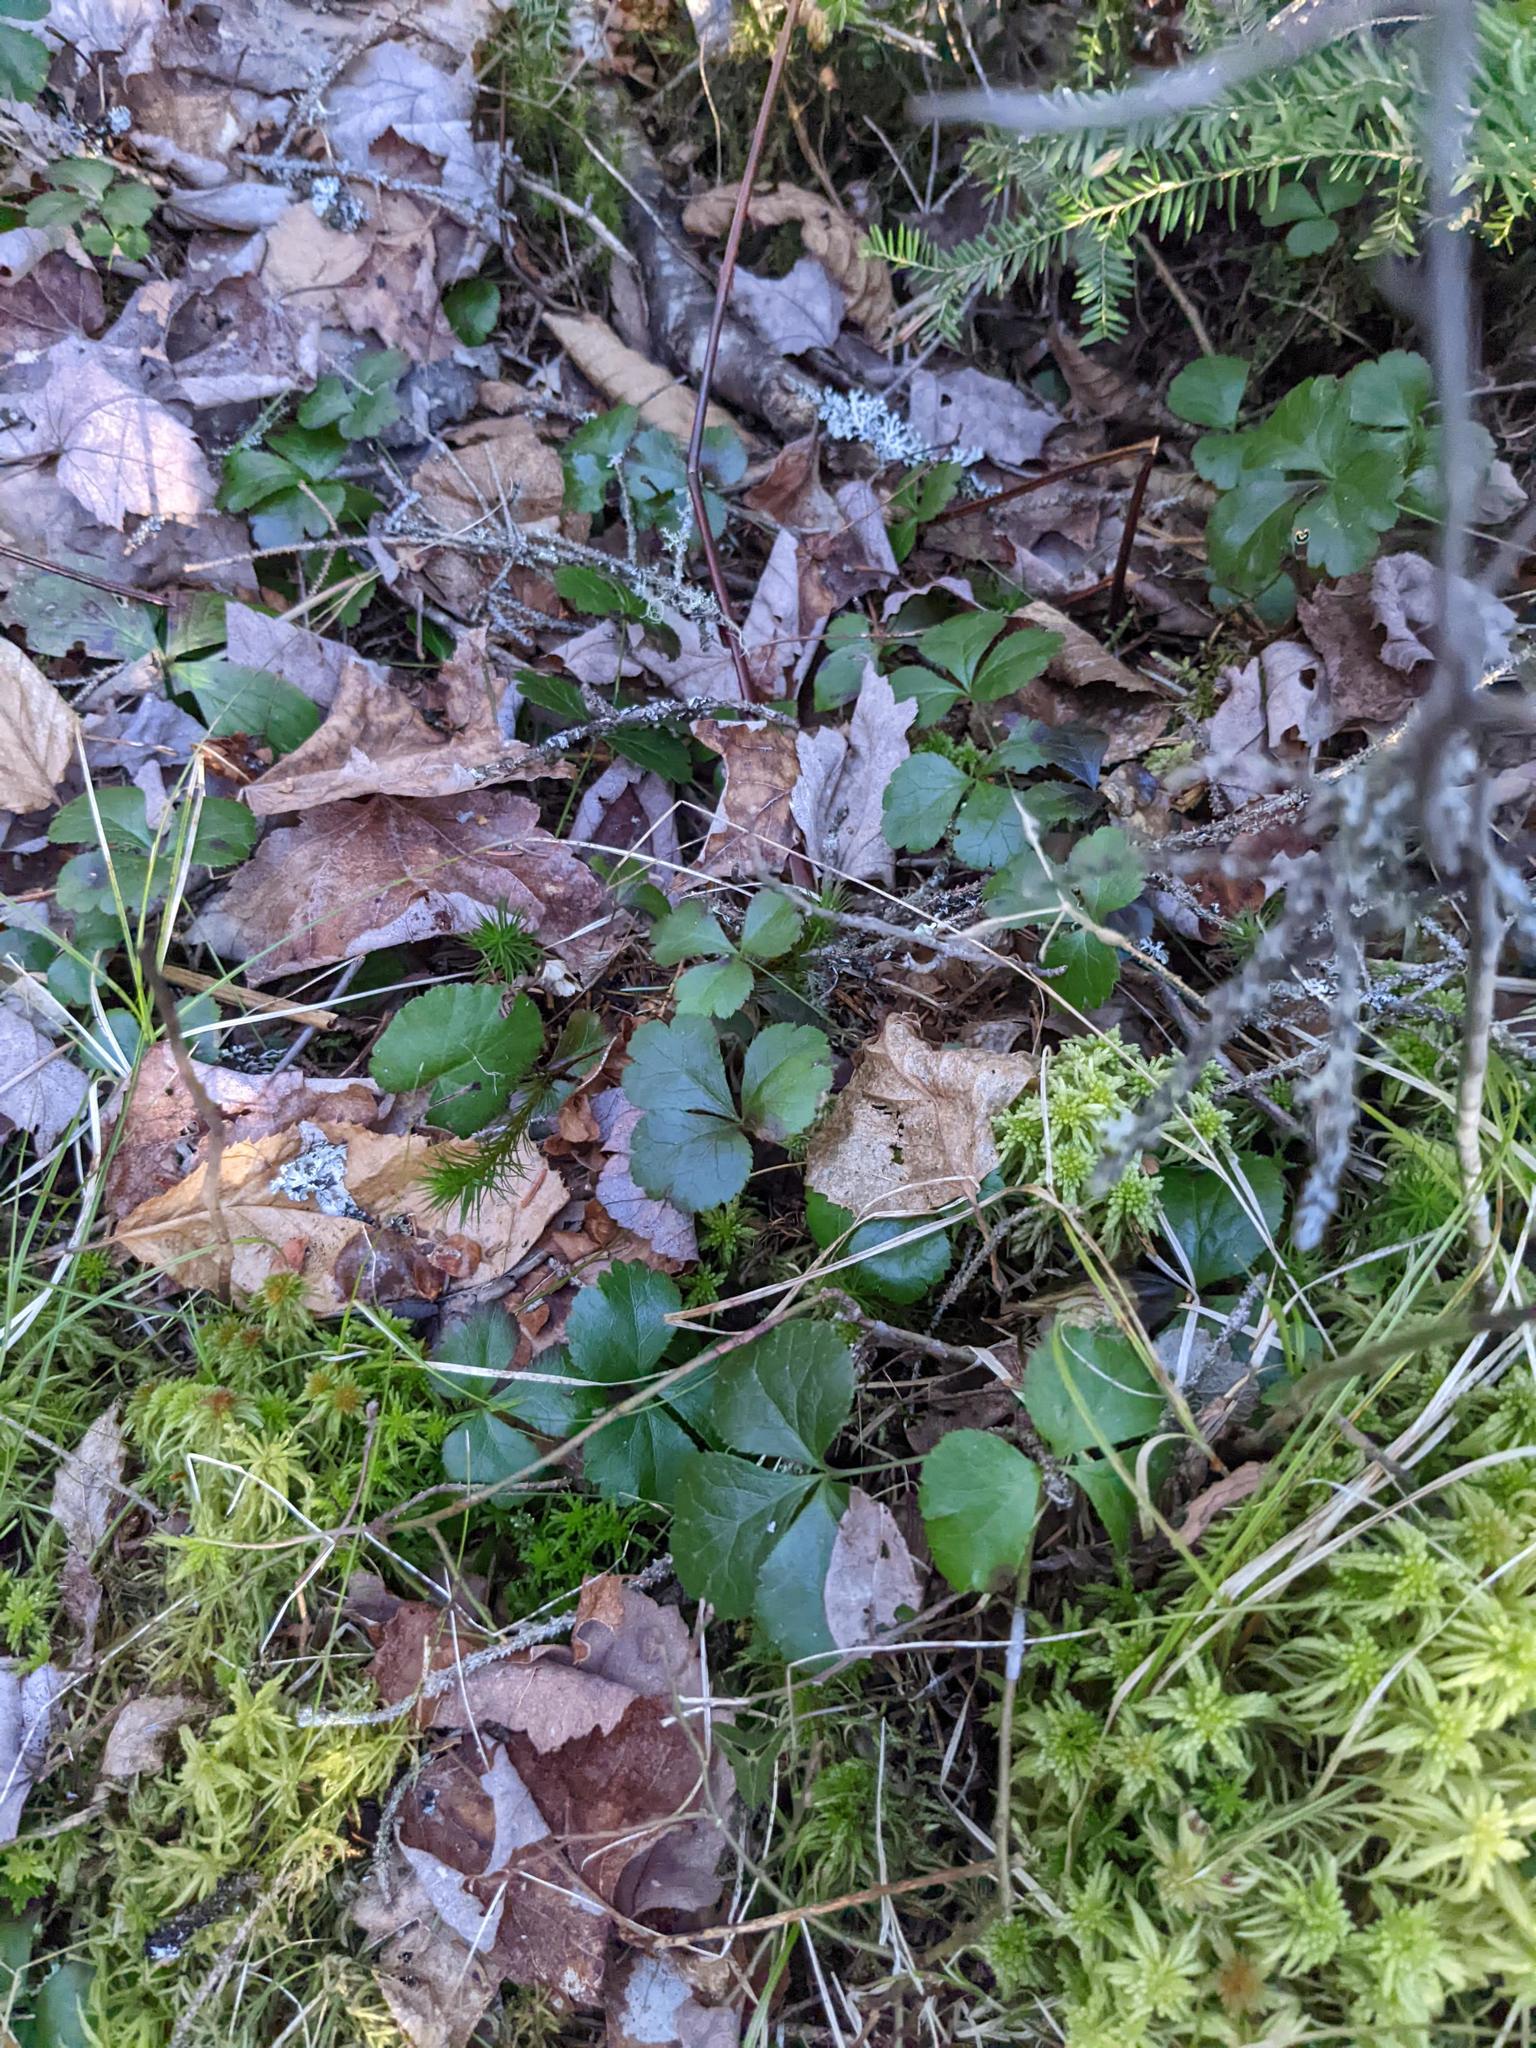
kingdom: Plantae
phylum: Tracheophyta
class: Magnoliopsida
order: Ranunculales
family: Ranunculaceae
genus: Coptis
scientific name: Coptis trifolia
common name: Canker-root
